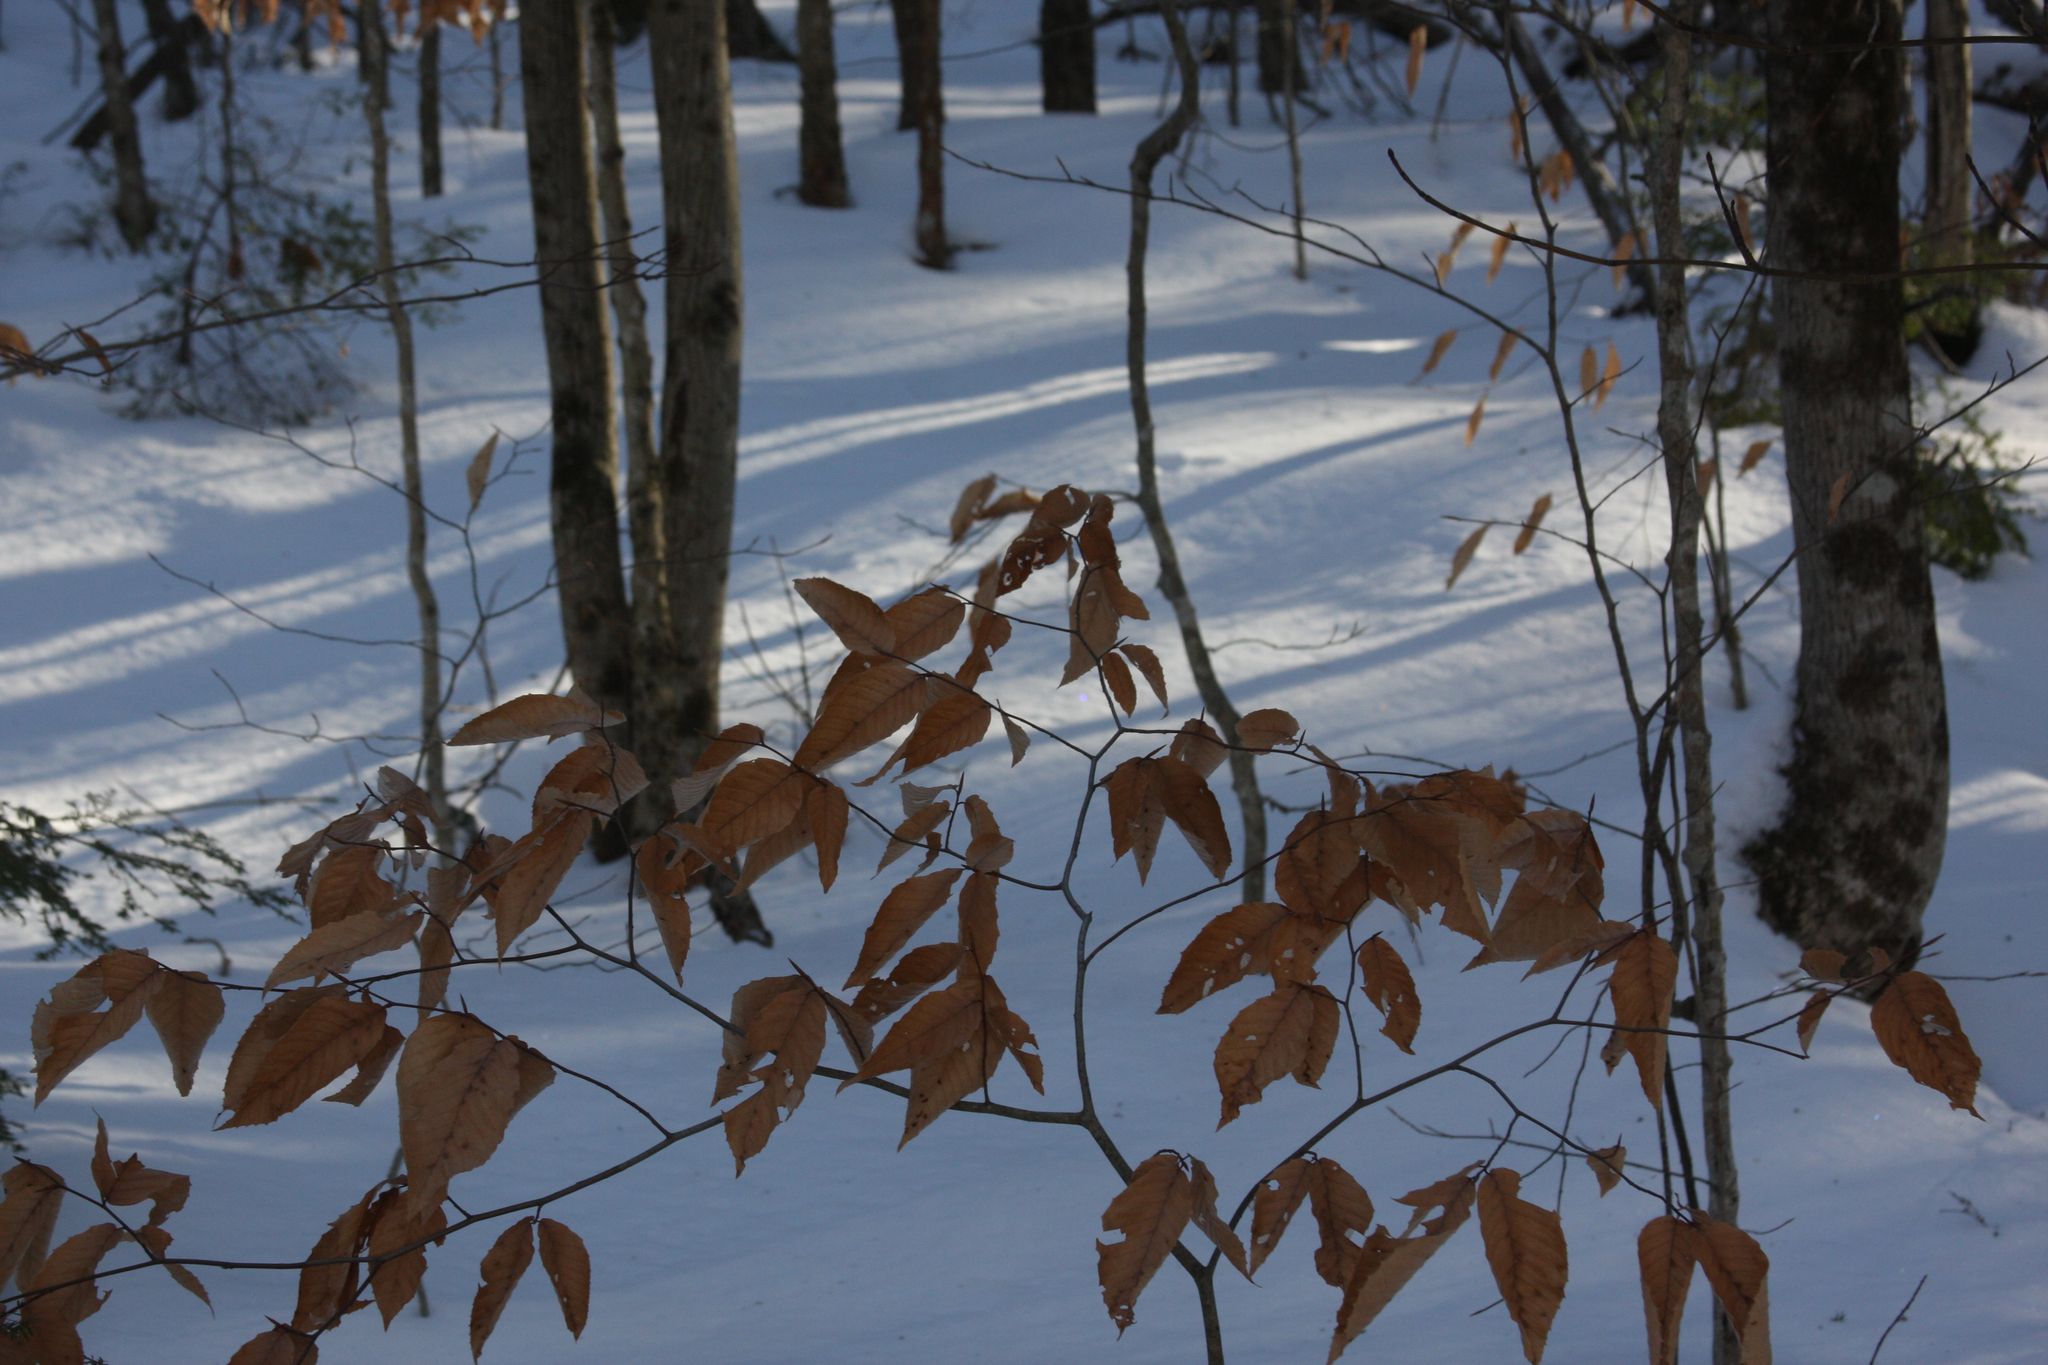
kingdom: Plantae
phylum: Tracheophyta
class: Magnoliopsida
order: Fagales
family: Fagaceae
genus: Fagus
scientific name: Fagus grandifolia
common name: American beech
